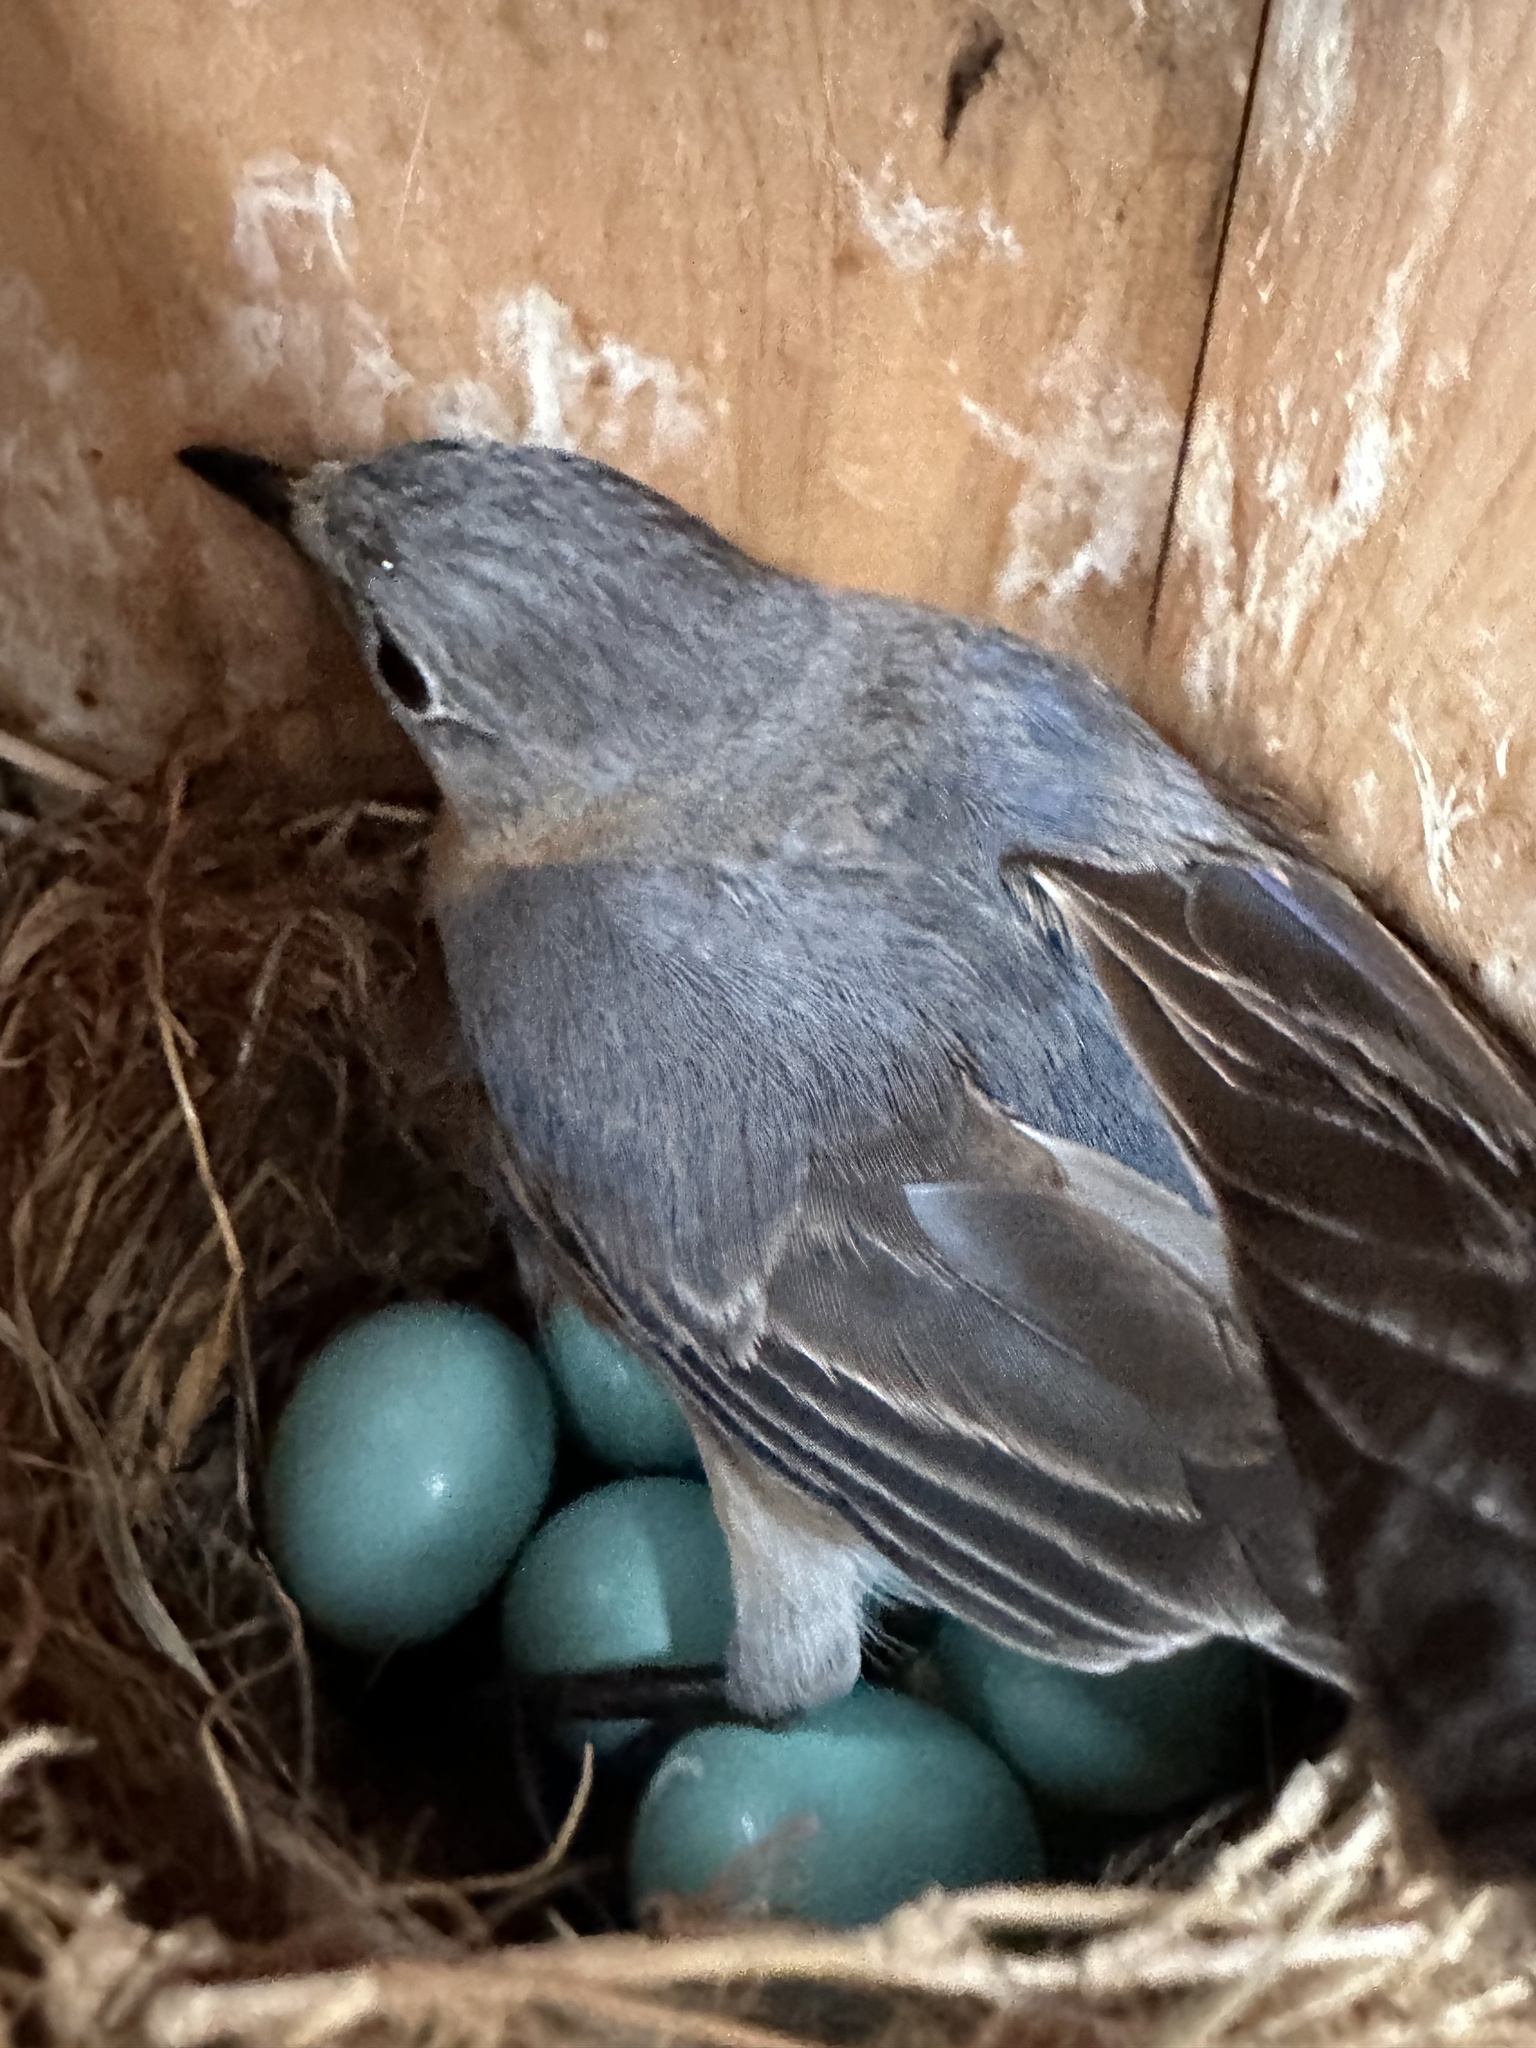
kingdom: Animalia
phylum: Chordata
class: Aves
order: Passeriformes
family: Turdidae
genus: Sialia
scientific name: Sialia sialis
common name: Eastern bluebird
